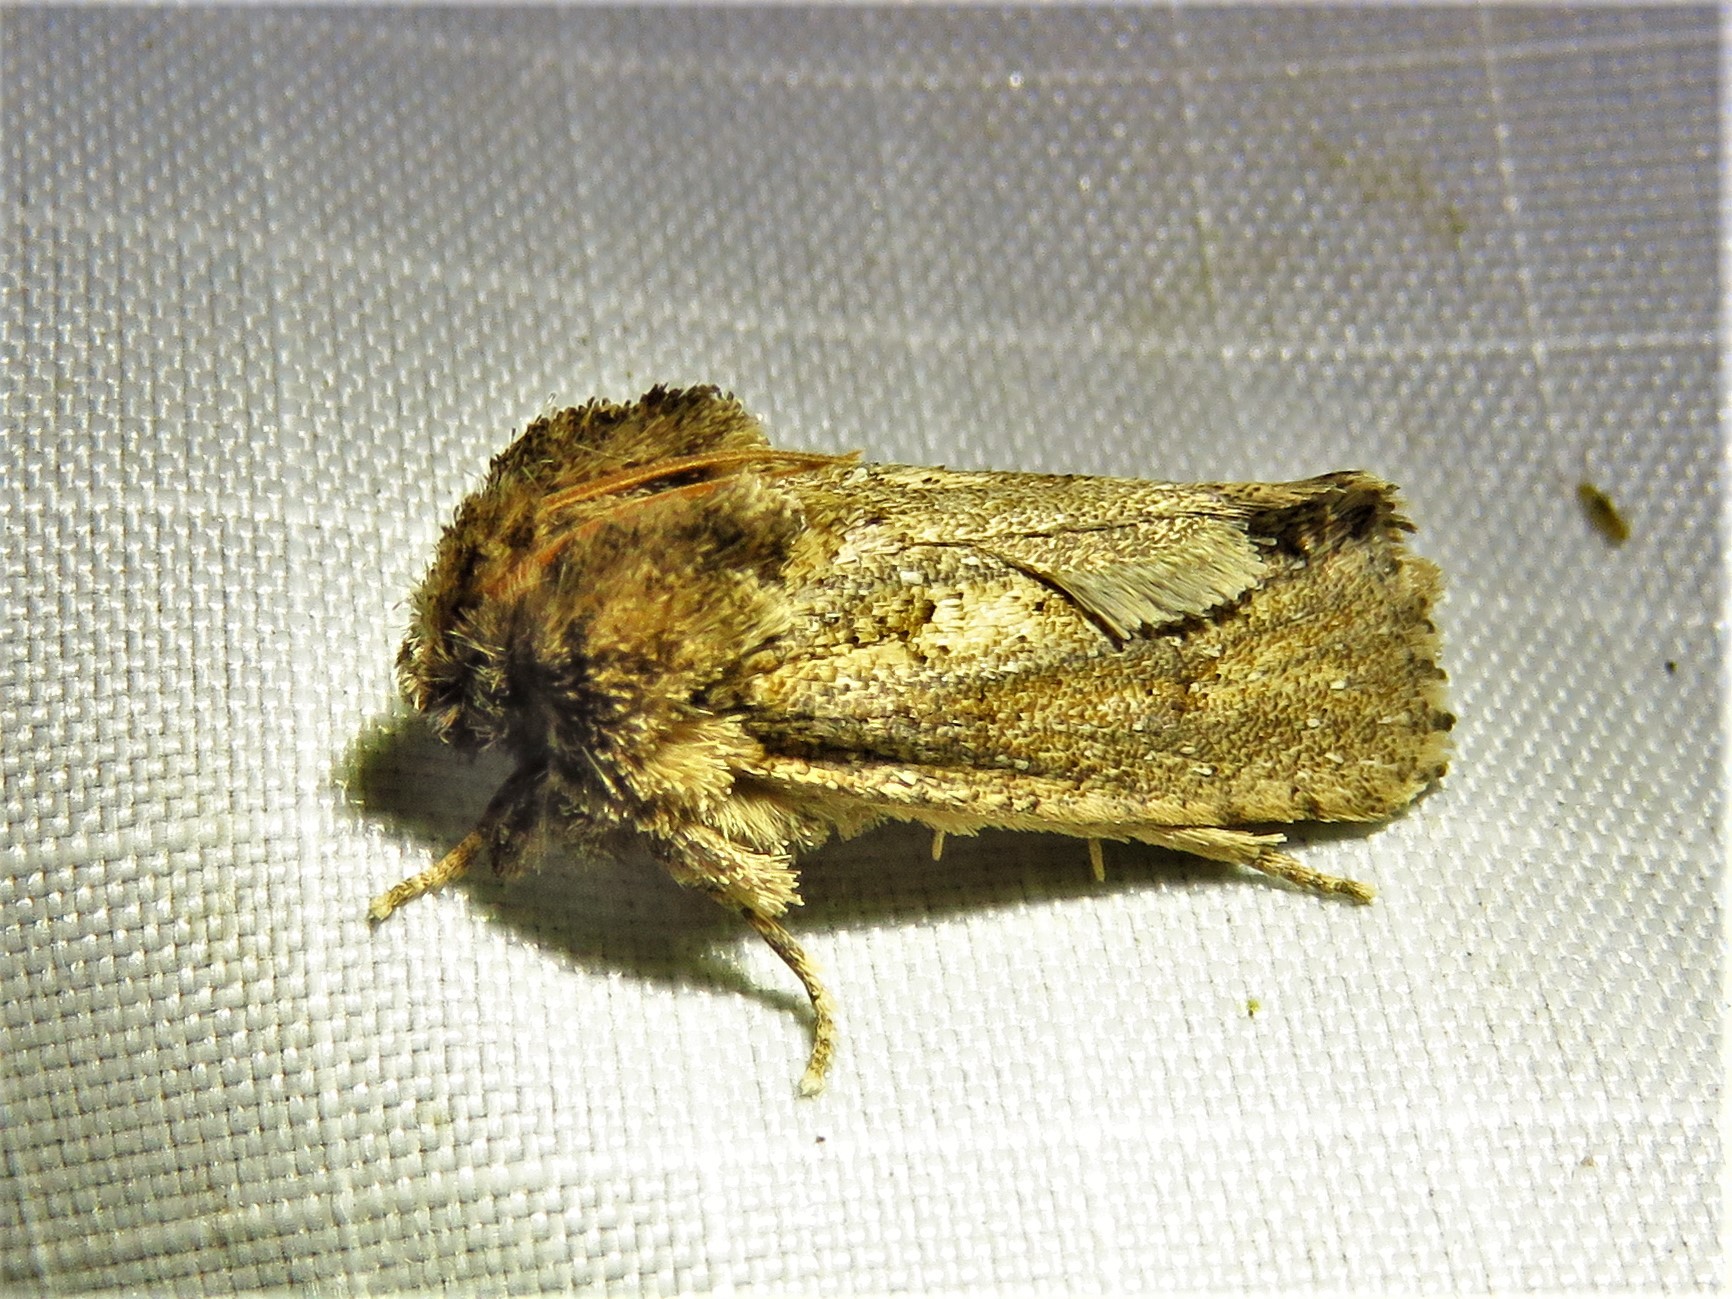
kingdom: Animalia
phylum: Arthropoda
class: Insecta
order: Lepidoptera
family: Tineidae
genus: Acrolophus
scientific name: Acrolophus arcanella
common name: Arcane grass tubeworm moth
